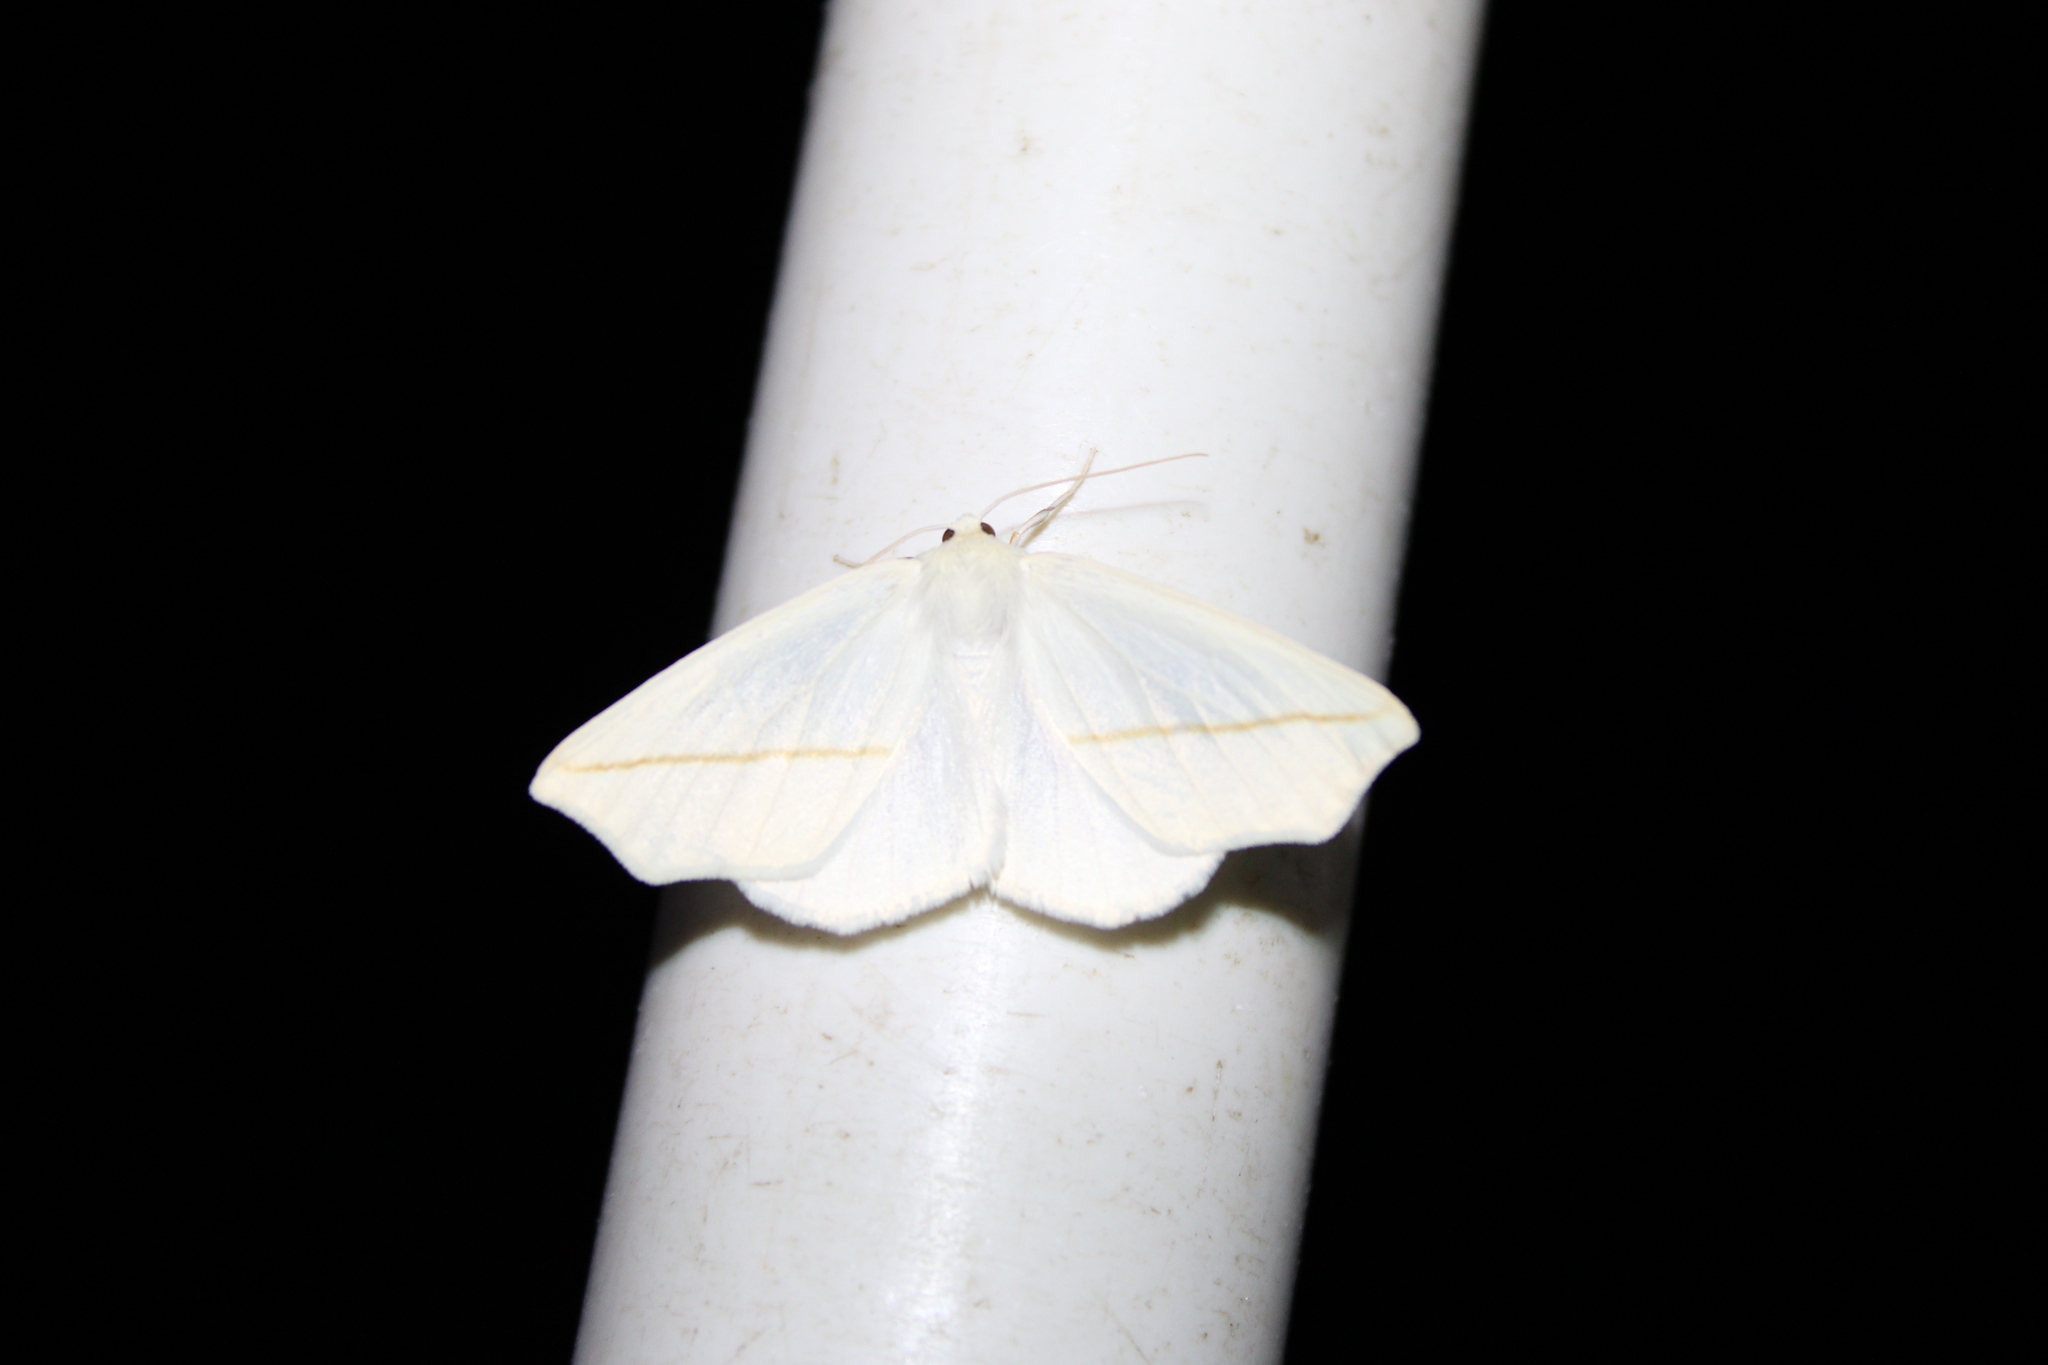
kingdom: Animalia
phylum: Arthropoda
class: Insecta
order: Lepidoptera
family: Geometridae
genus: Tetracis
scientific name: Tetracis cachexiata
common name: White slant-line
